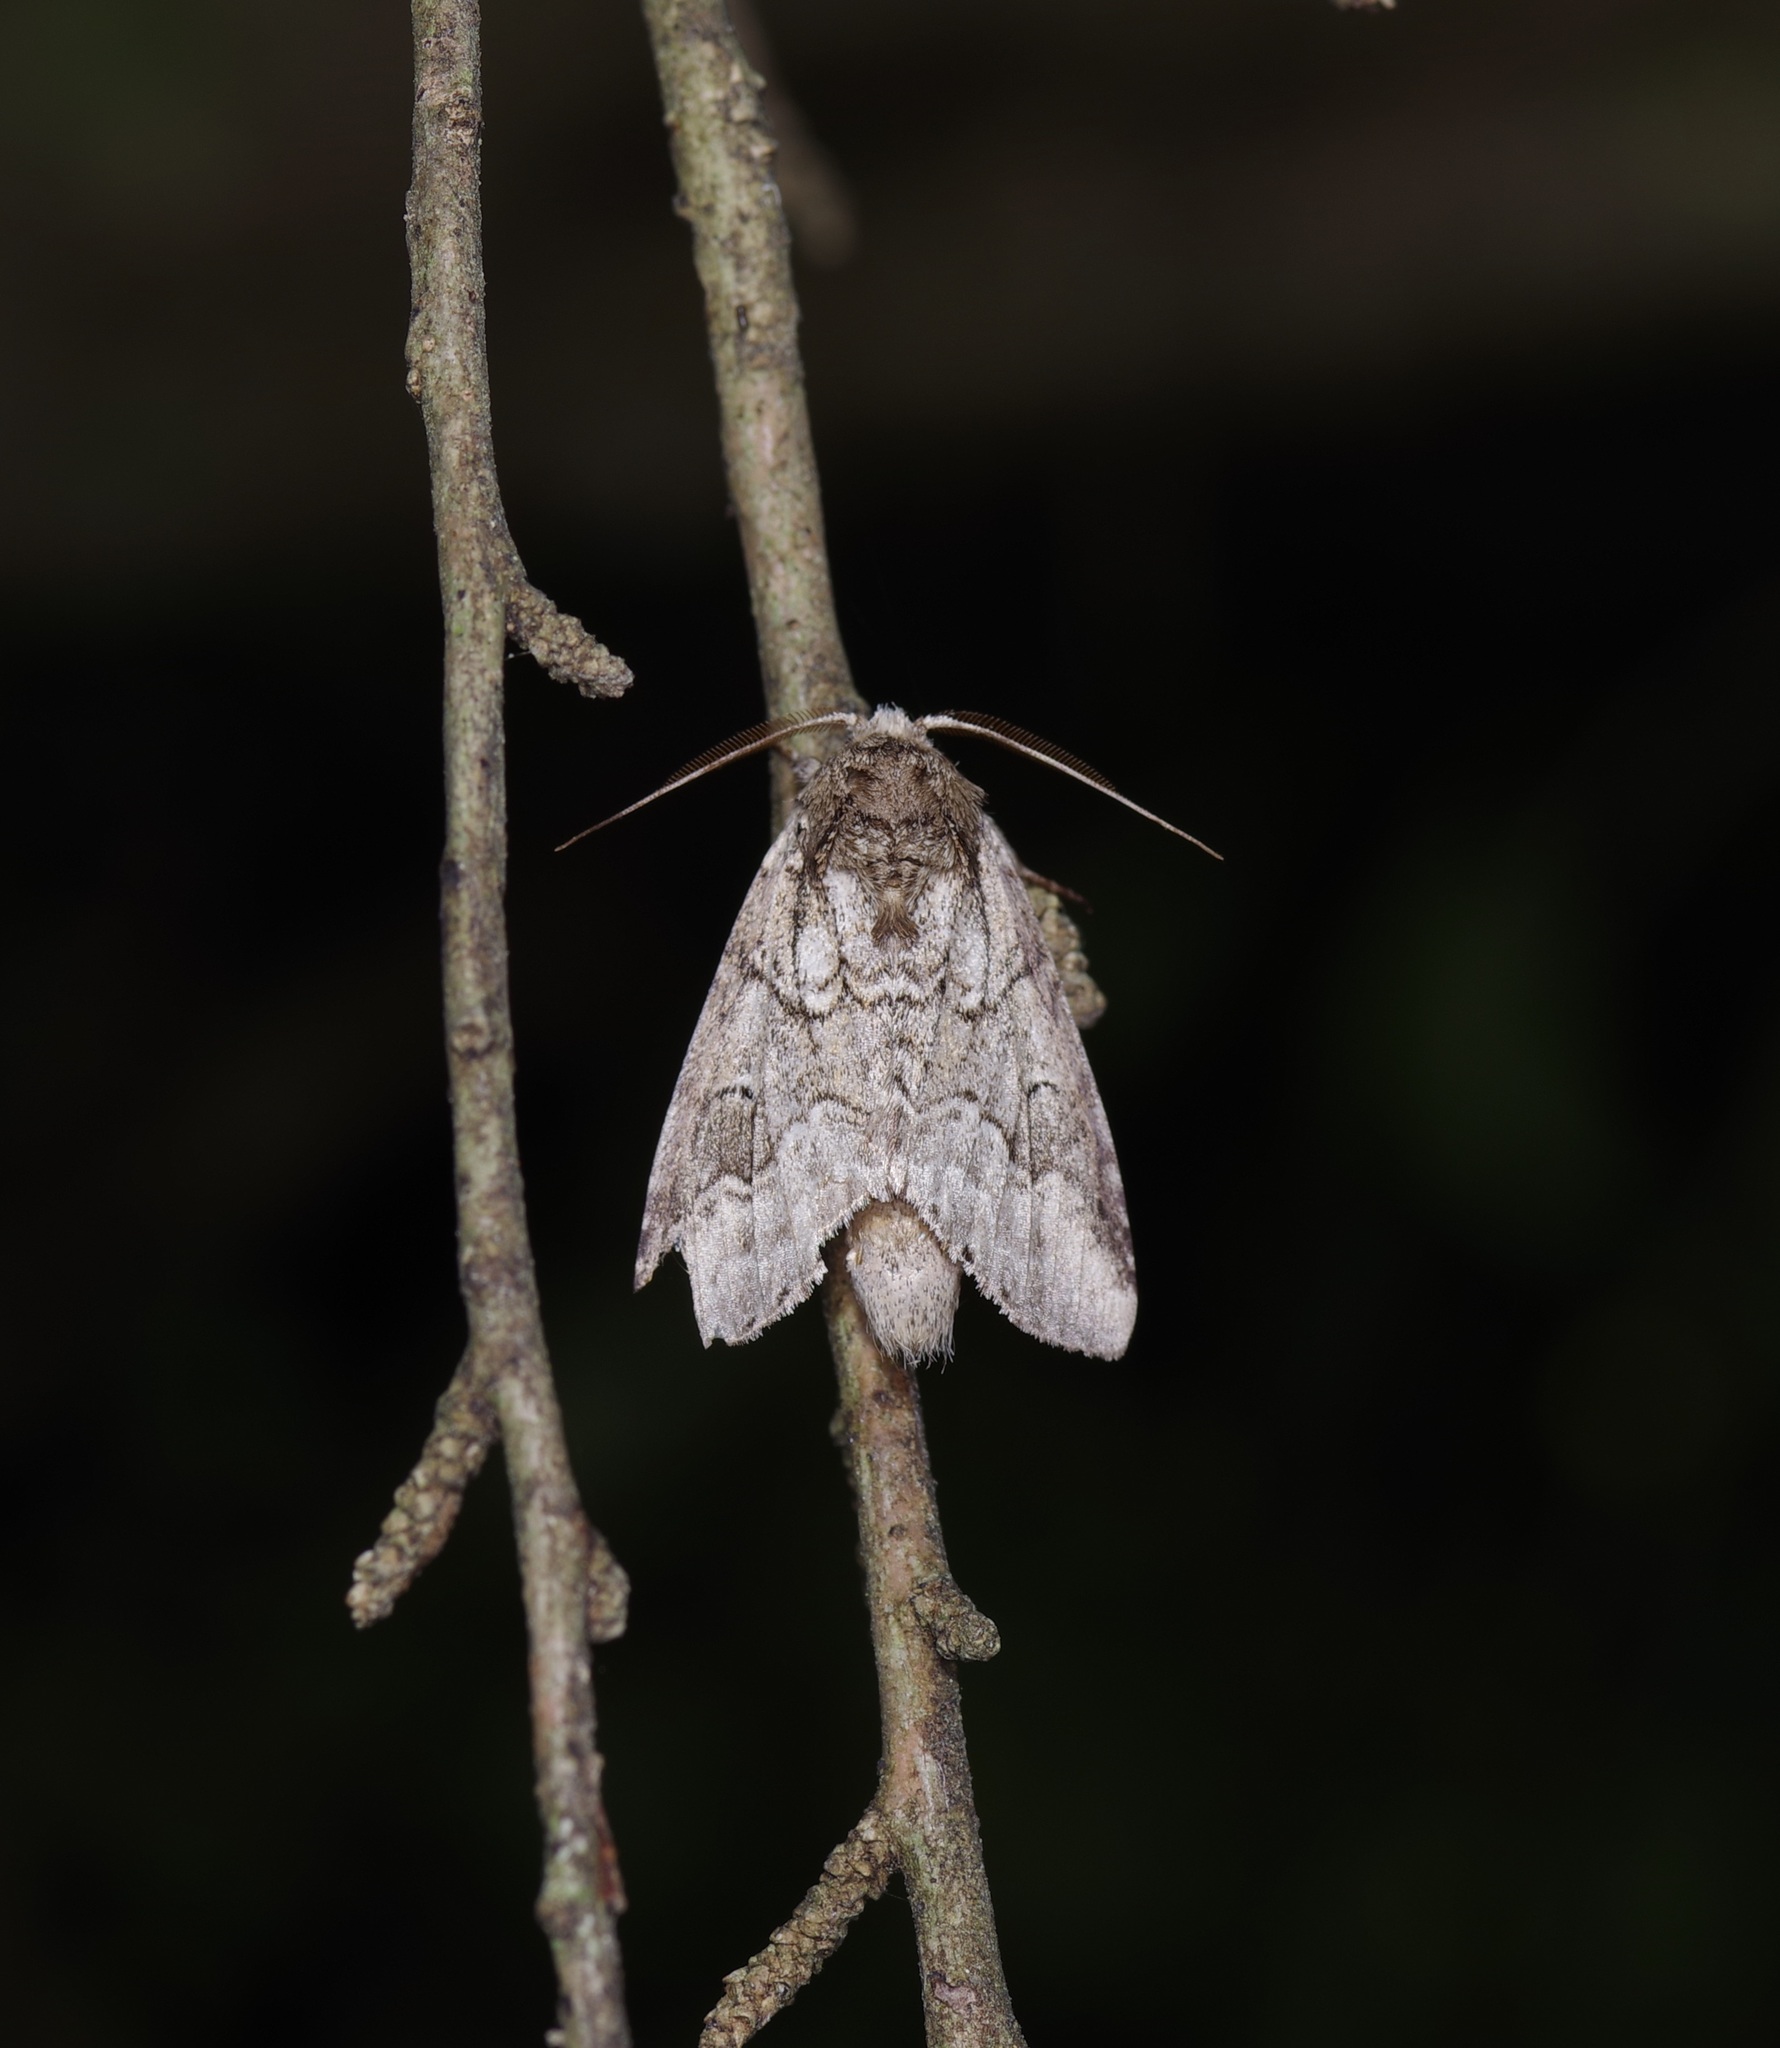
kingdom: Animalia
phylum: Arthropoda
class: Insecta
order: Lepidoptera
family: Notodontidae
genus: Lochmaeus
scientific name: Lochmaeus bilineata
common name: Double-lined prominent
